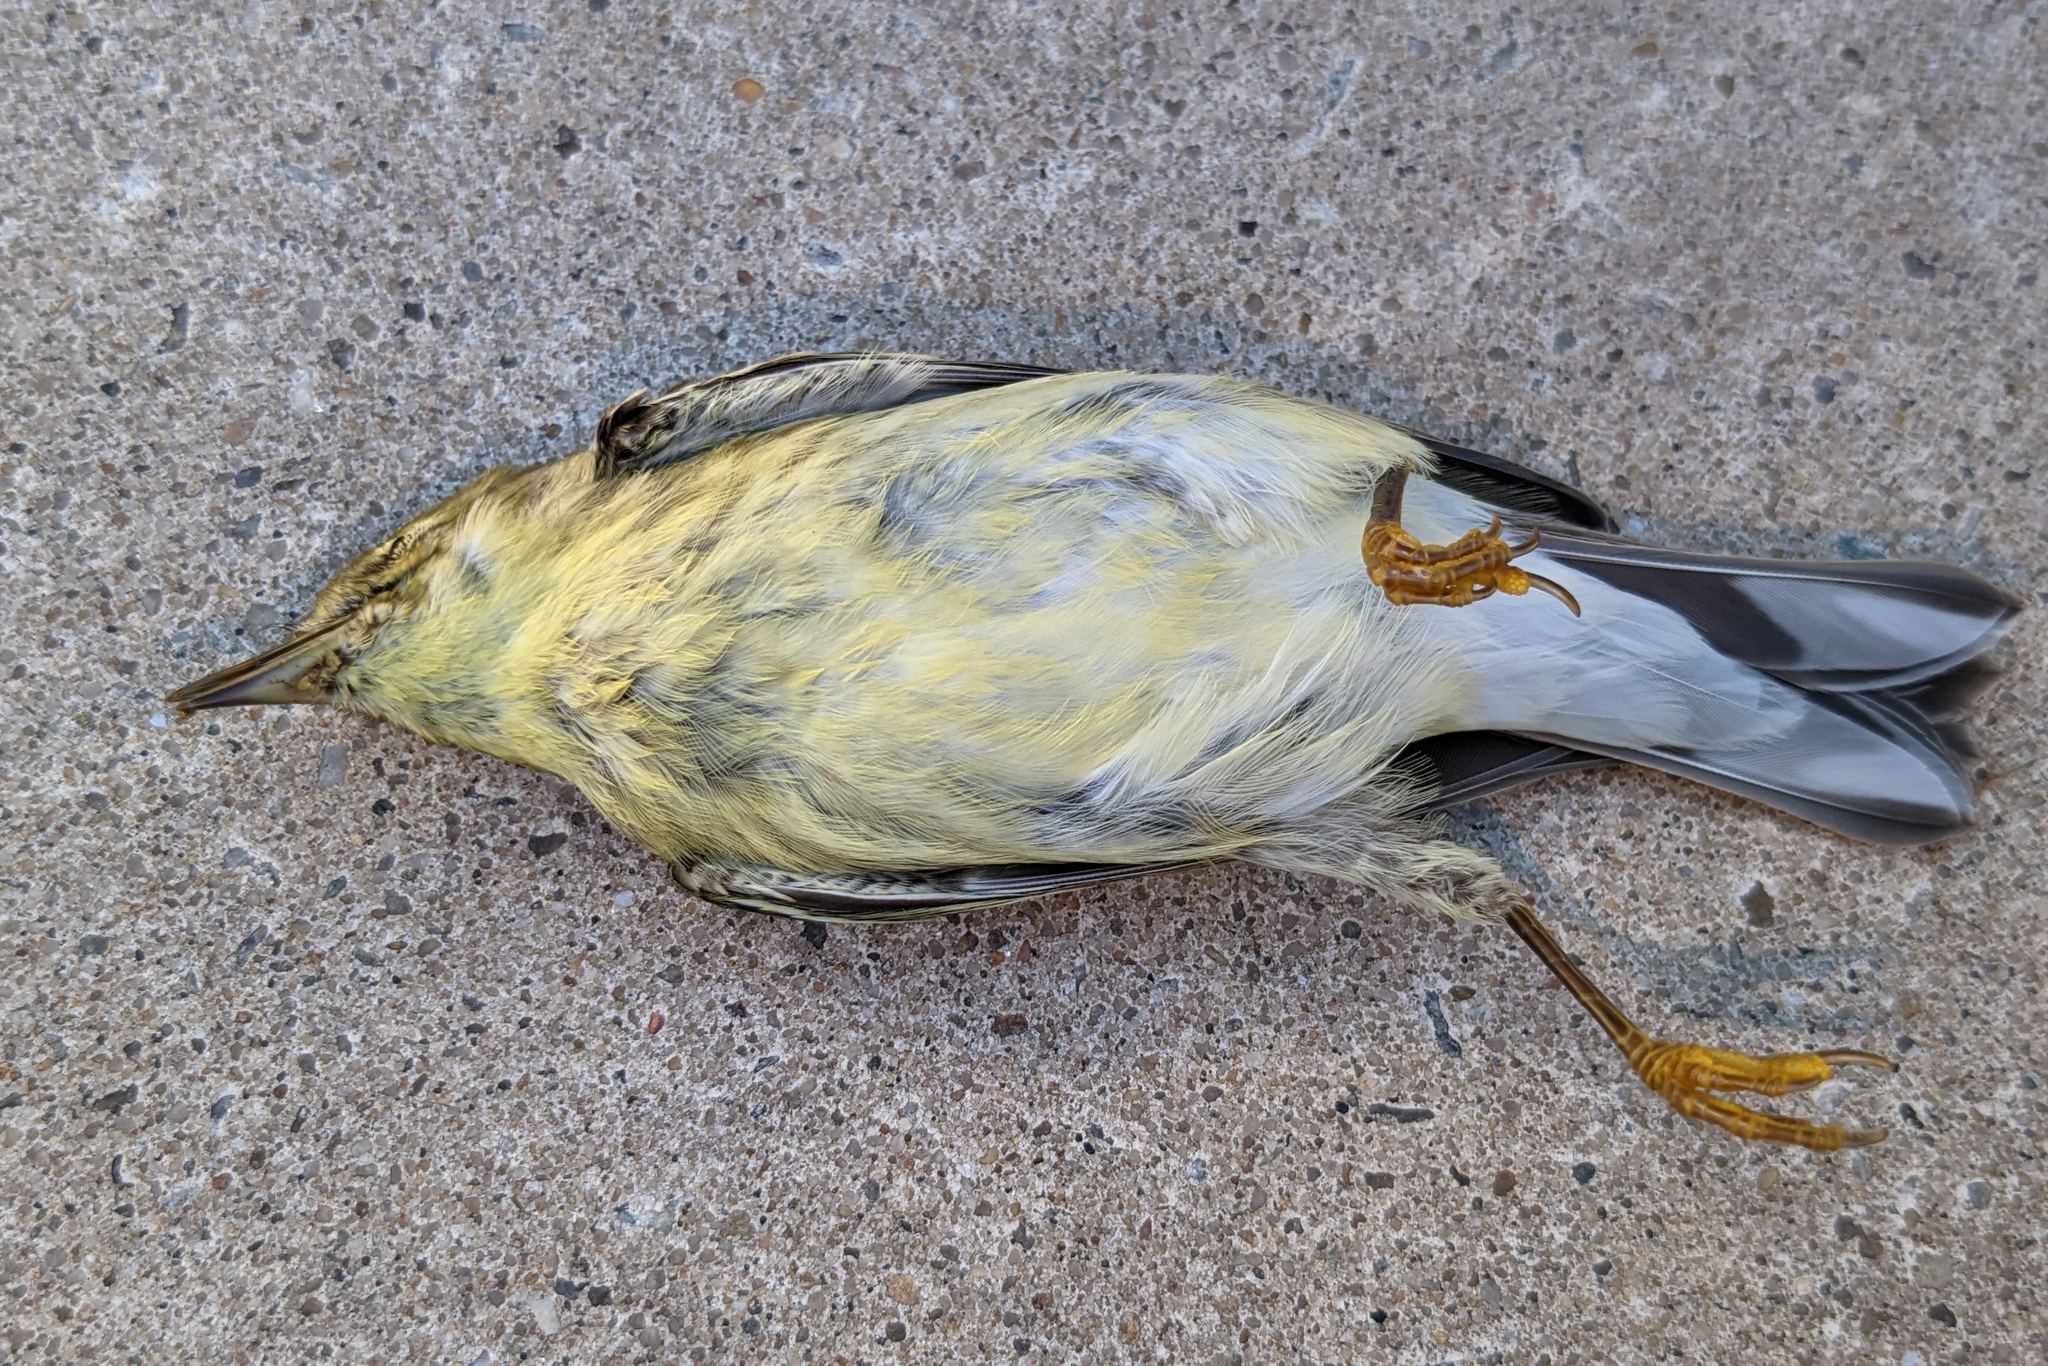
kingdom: Animalia
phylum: Chordata
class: Aves
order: Passeriformes
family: Parulidae
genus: Setophaga
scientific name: Setophaga striata
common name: Blackpoll warbler
